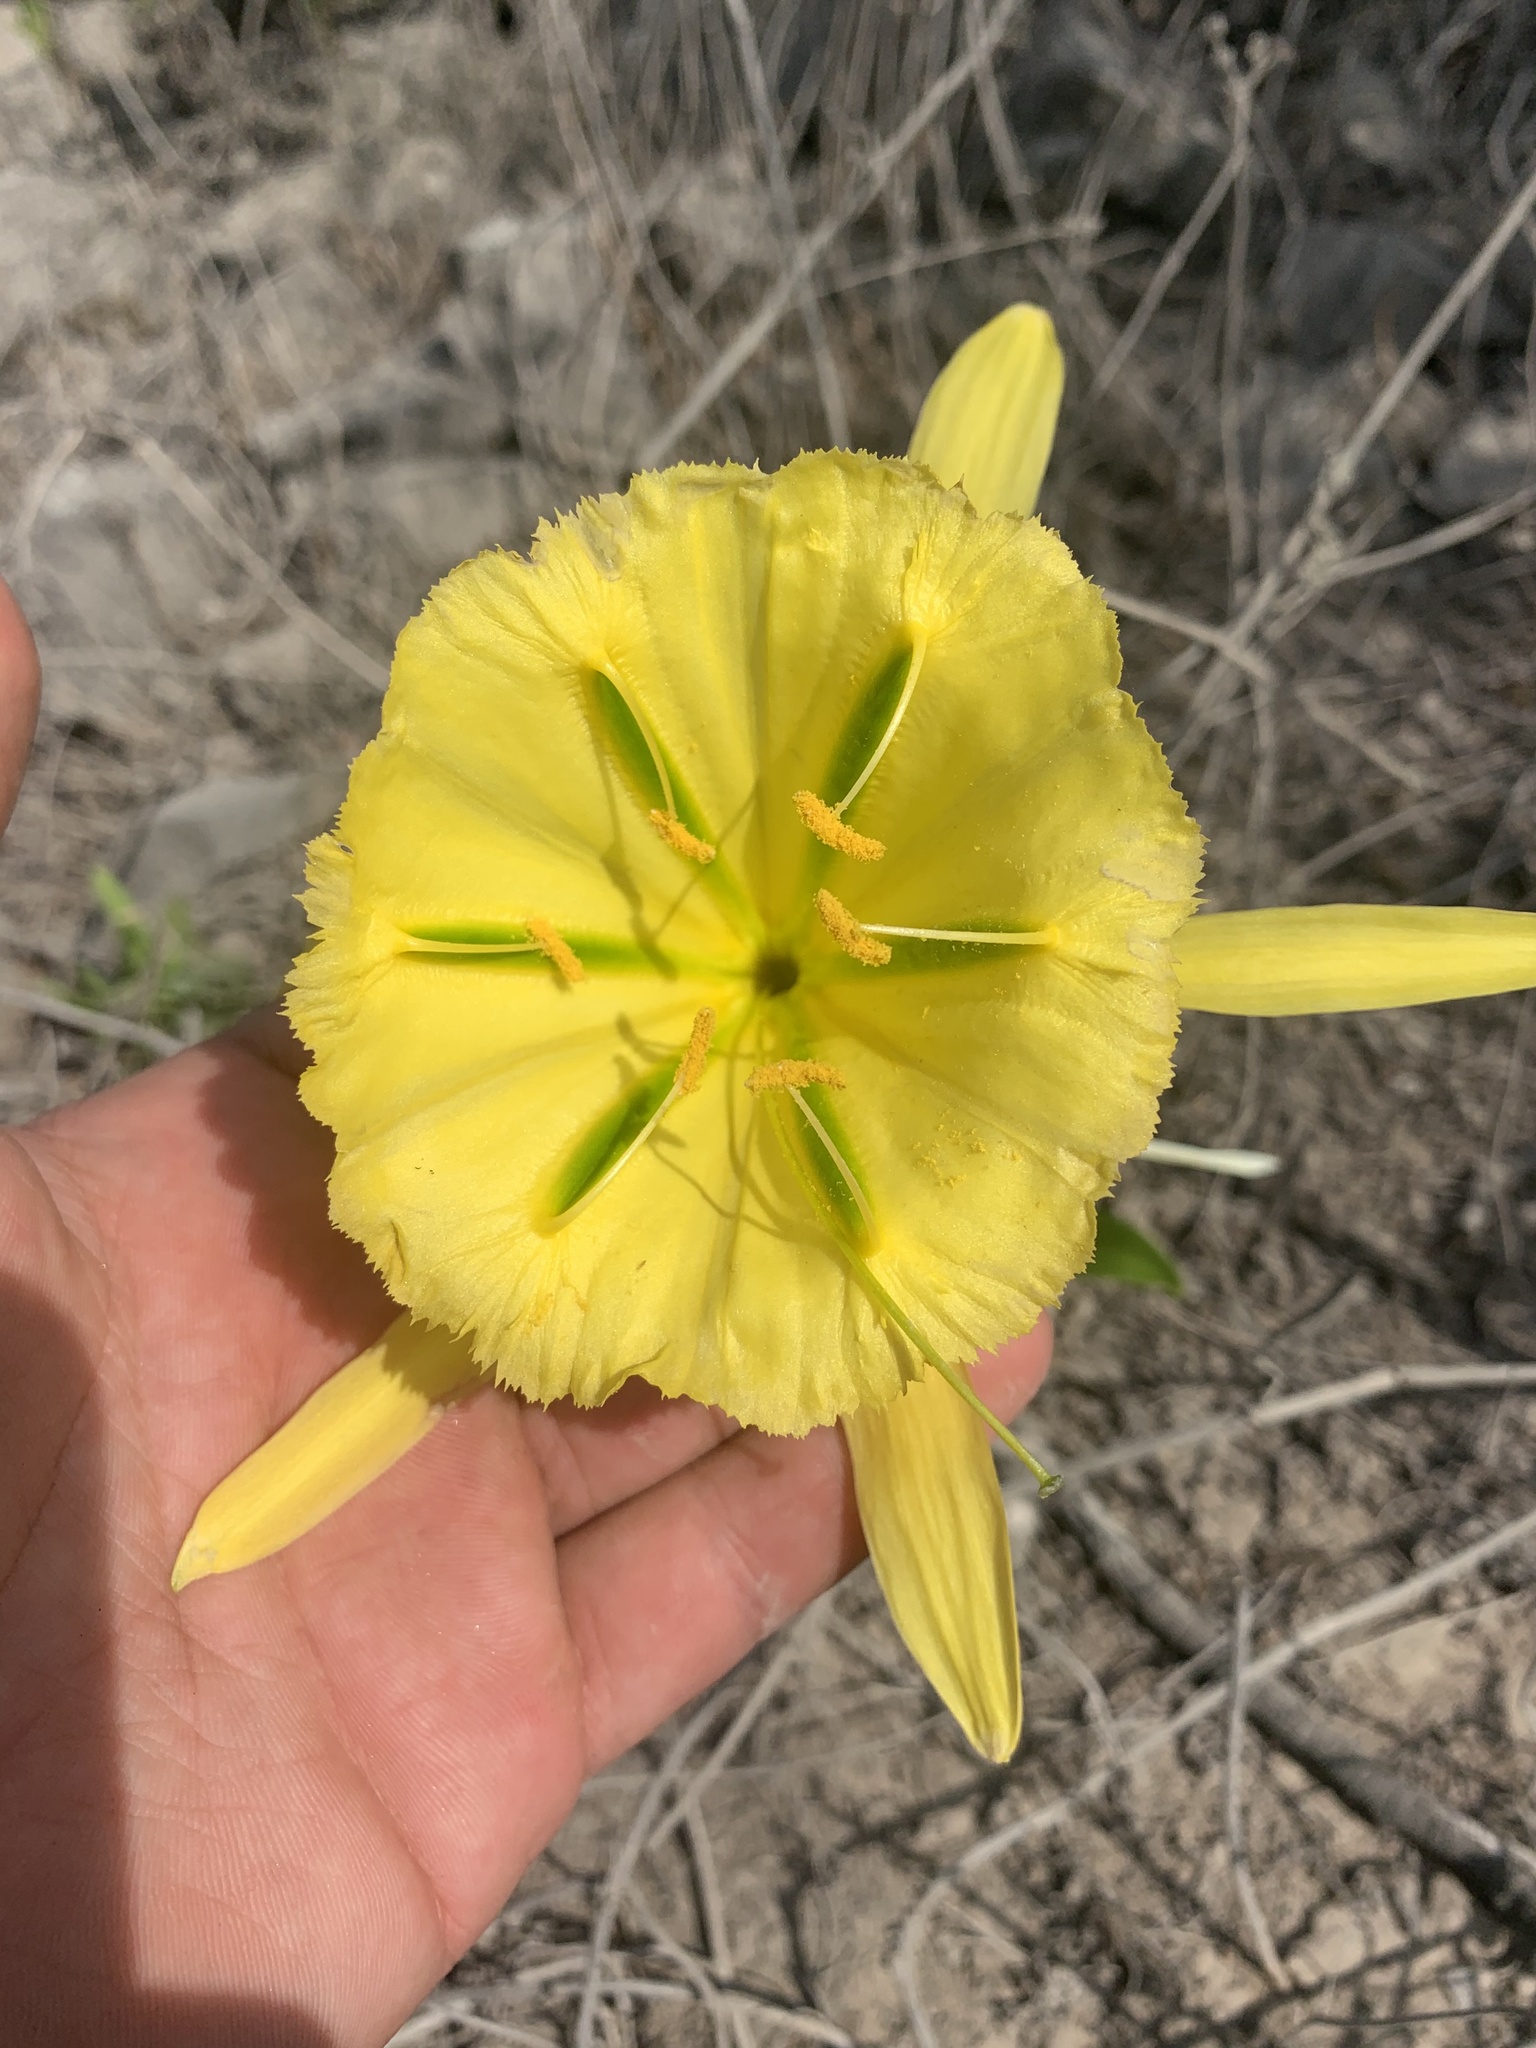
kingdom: Plantae
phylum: Tracheophyta
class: Liliopsida
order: Asparagales
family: Amaryllidaceae
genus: Ismene
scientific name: Ismene amancaes
